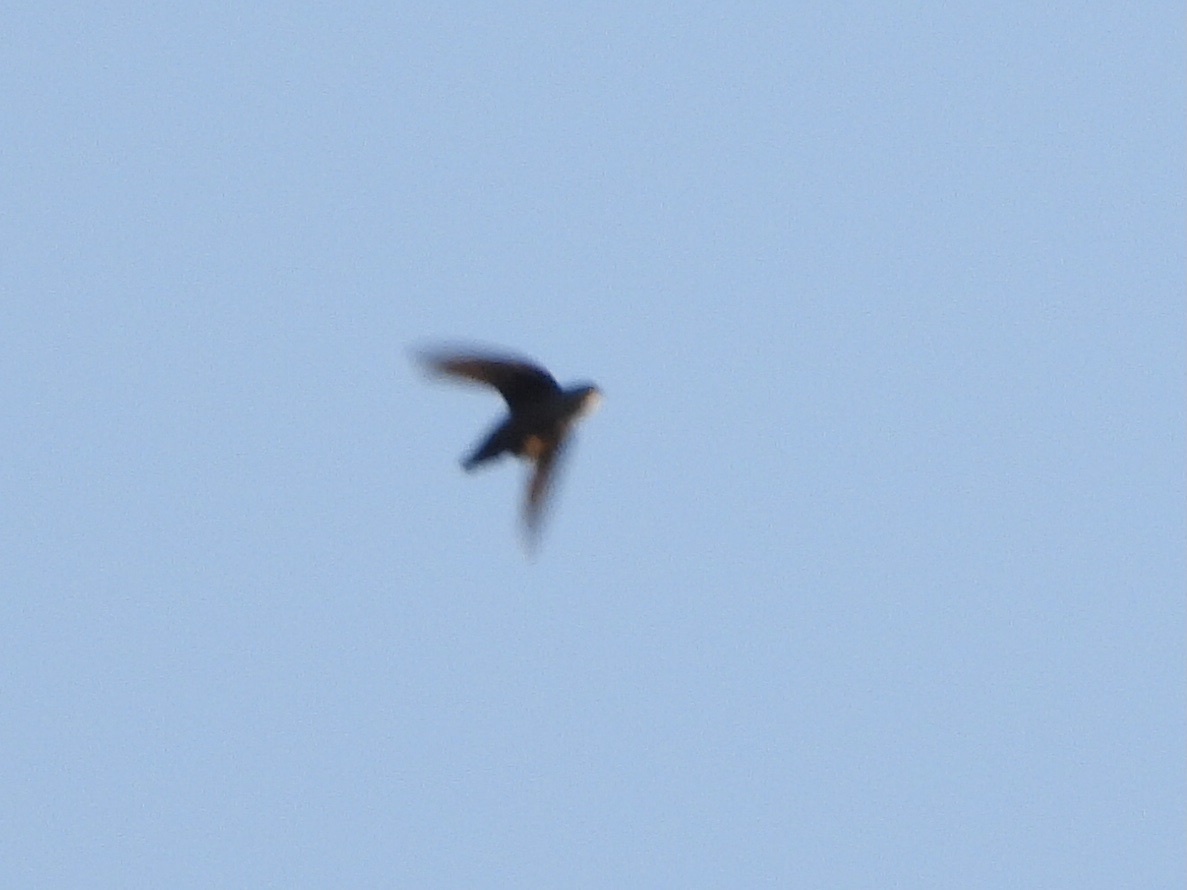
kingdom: Animalia
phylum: Chordata
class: Aves
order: Apodiformes
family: Apodidae
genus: Chaetura
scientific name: Chaetura vauxi
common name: Vaux's swift
